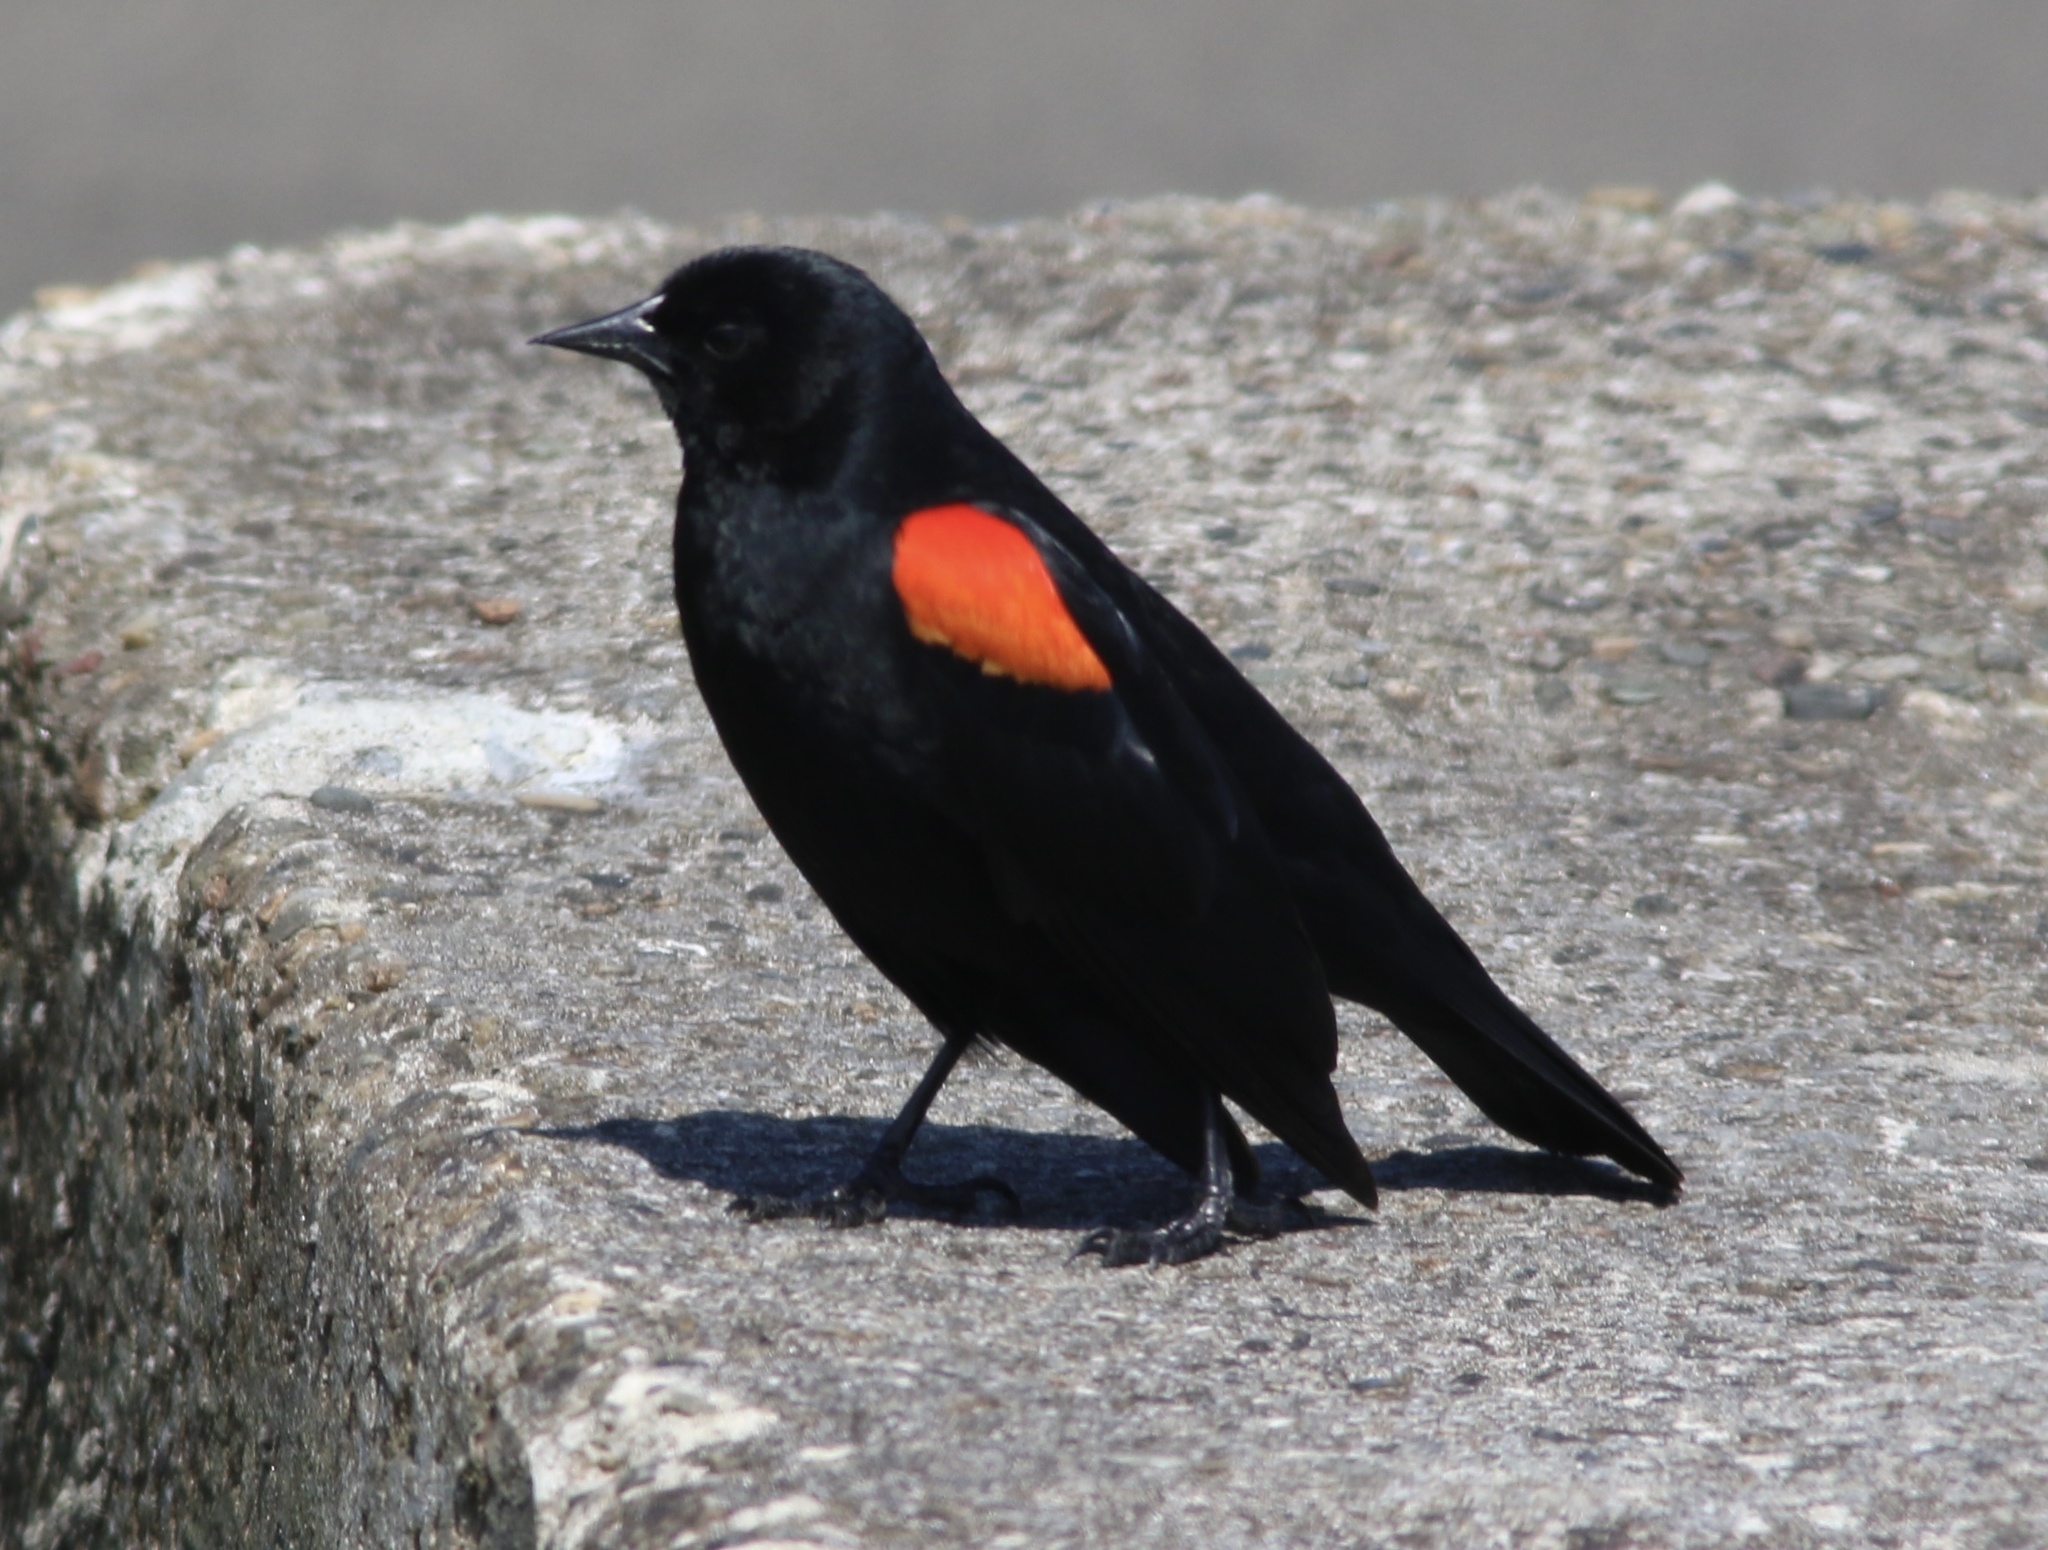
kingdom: Animalia
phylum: Chordata
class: Aves
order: Passeriformes
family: Icteridae
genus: Agelaius
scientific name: Agelaius phoeniceus
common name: Red-winged blackbird
